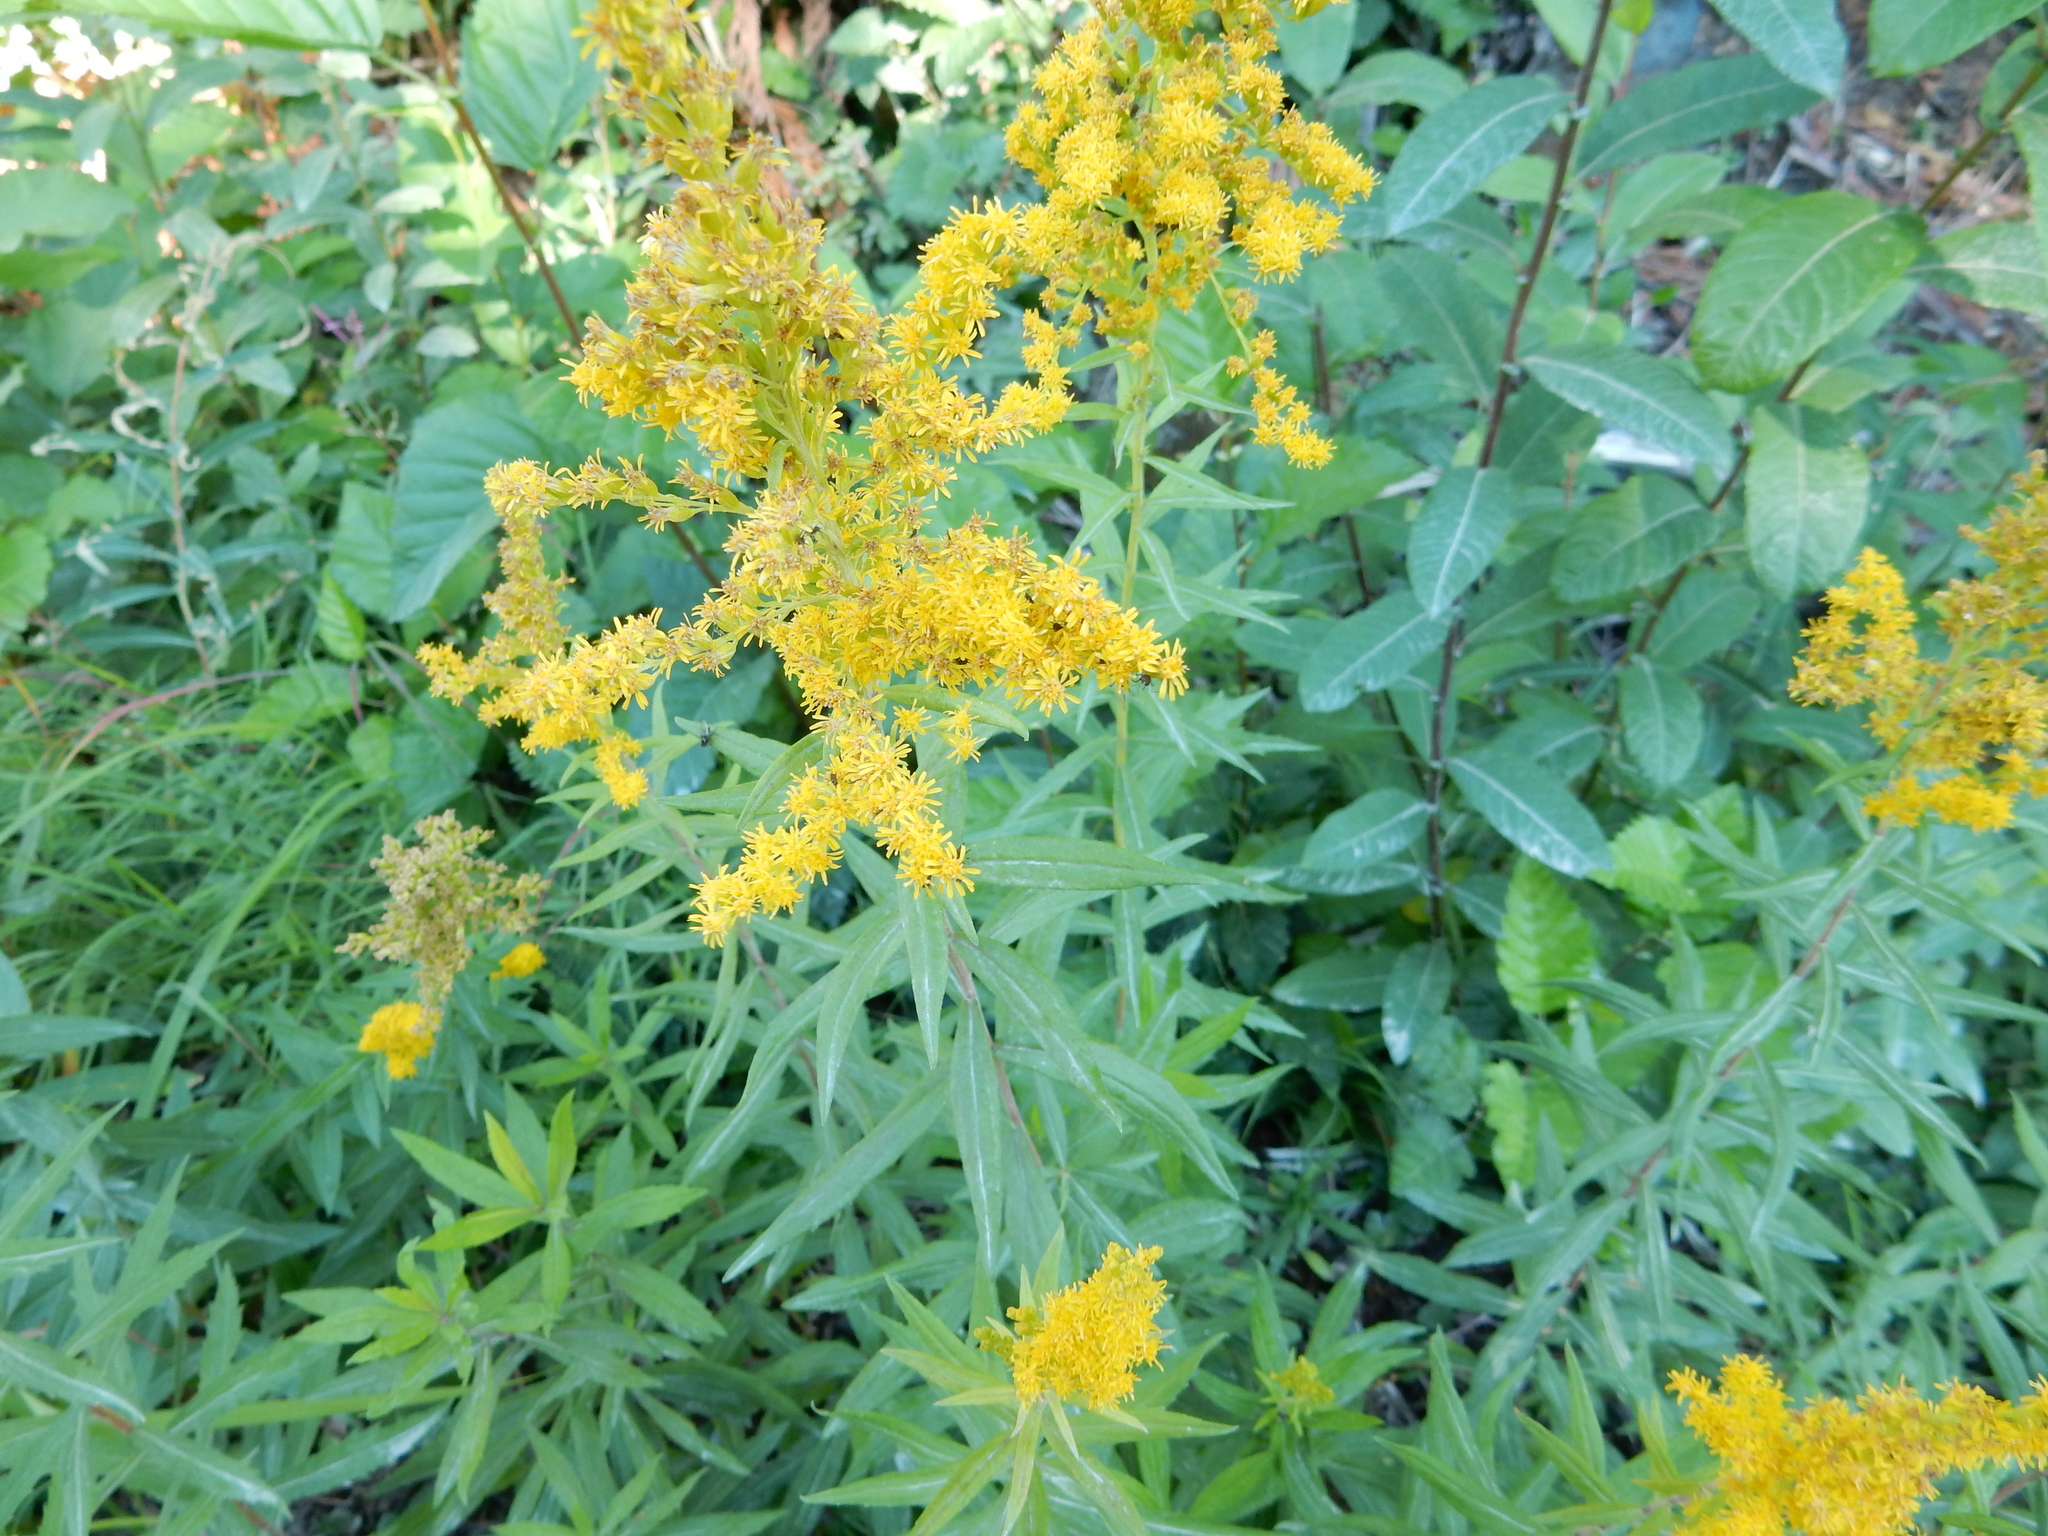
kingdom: Plantae
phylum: Tracheophyta
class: Magnoliopsida
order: Asterales
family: Asteraceae
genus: Solidago
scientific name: Solidago lepida
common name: Western canada goldenrod
